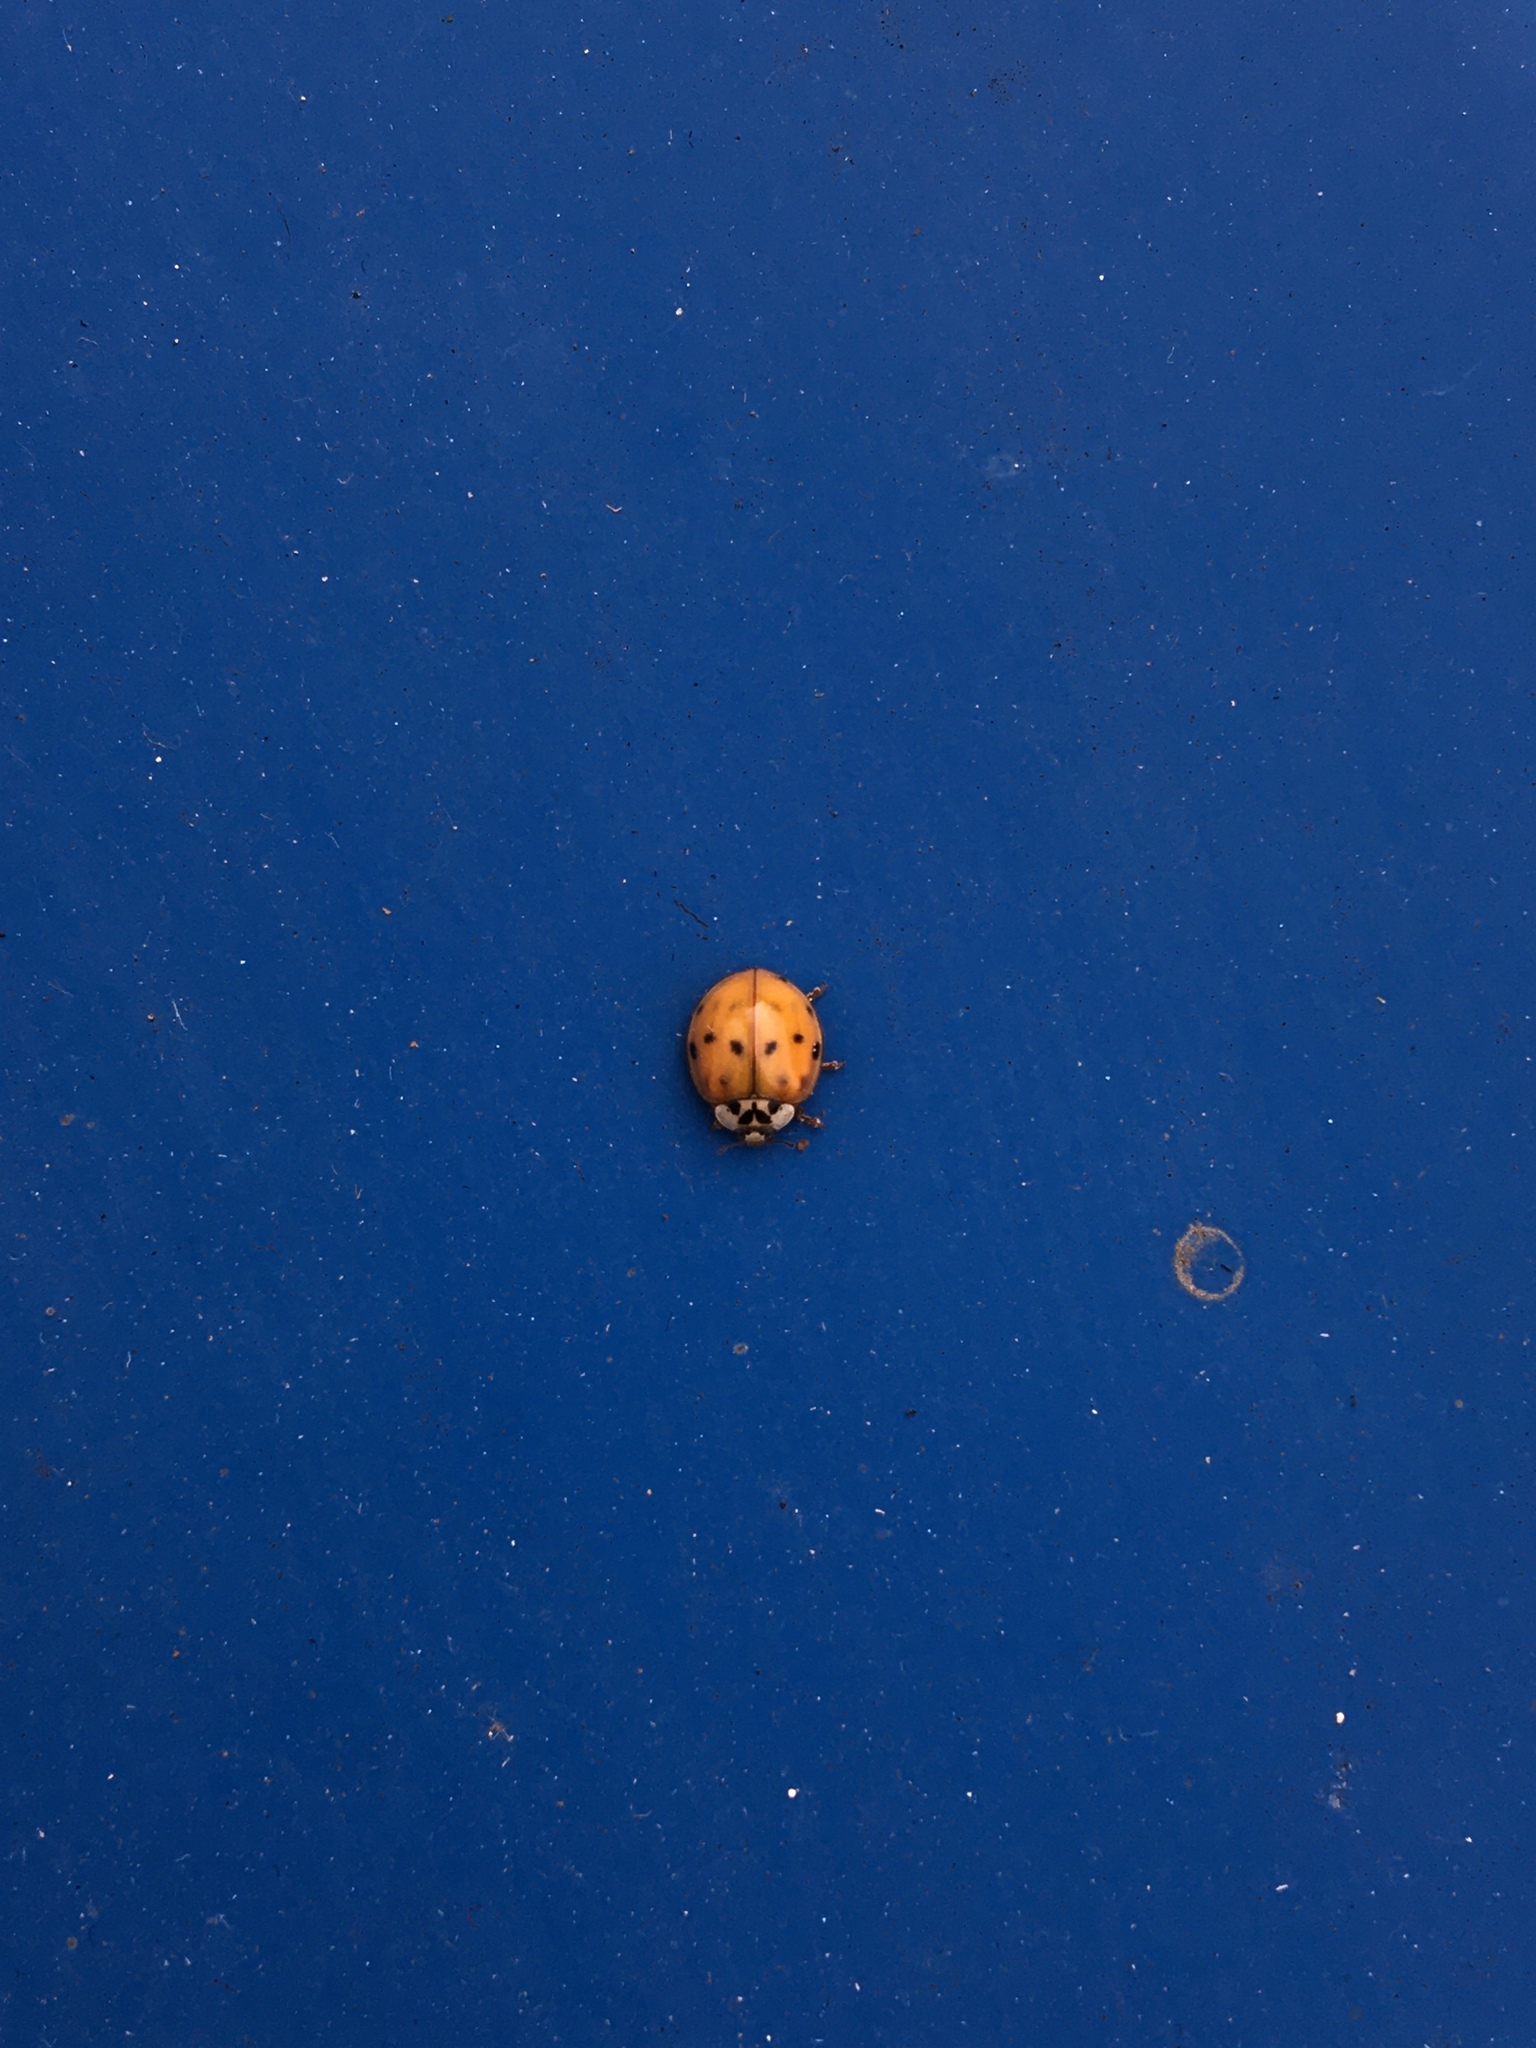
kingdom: Animalia
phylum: Arthropoda
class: Insecta
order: Coleoptera
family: Coccinellidae
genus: Harmonia
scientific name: Harmonia axyridis
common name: Harlequin ladybird
